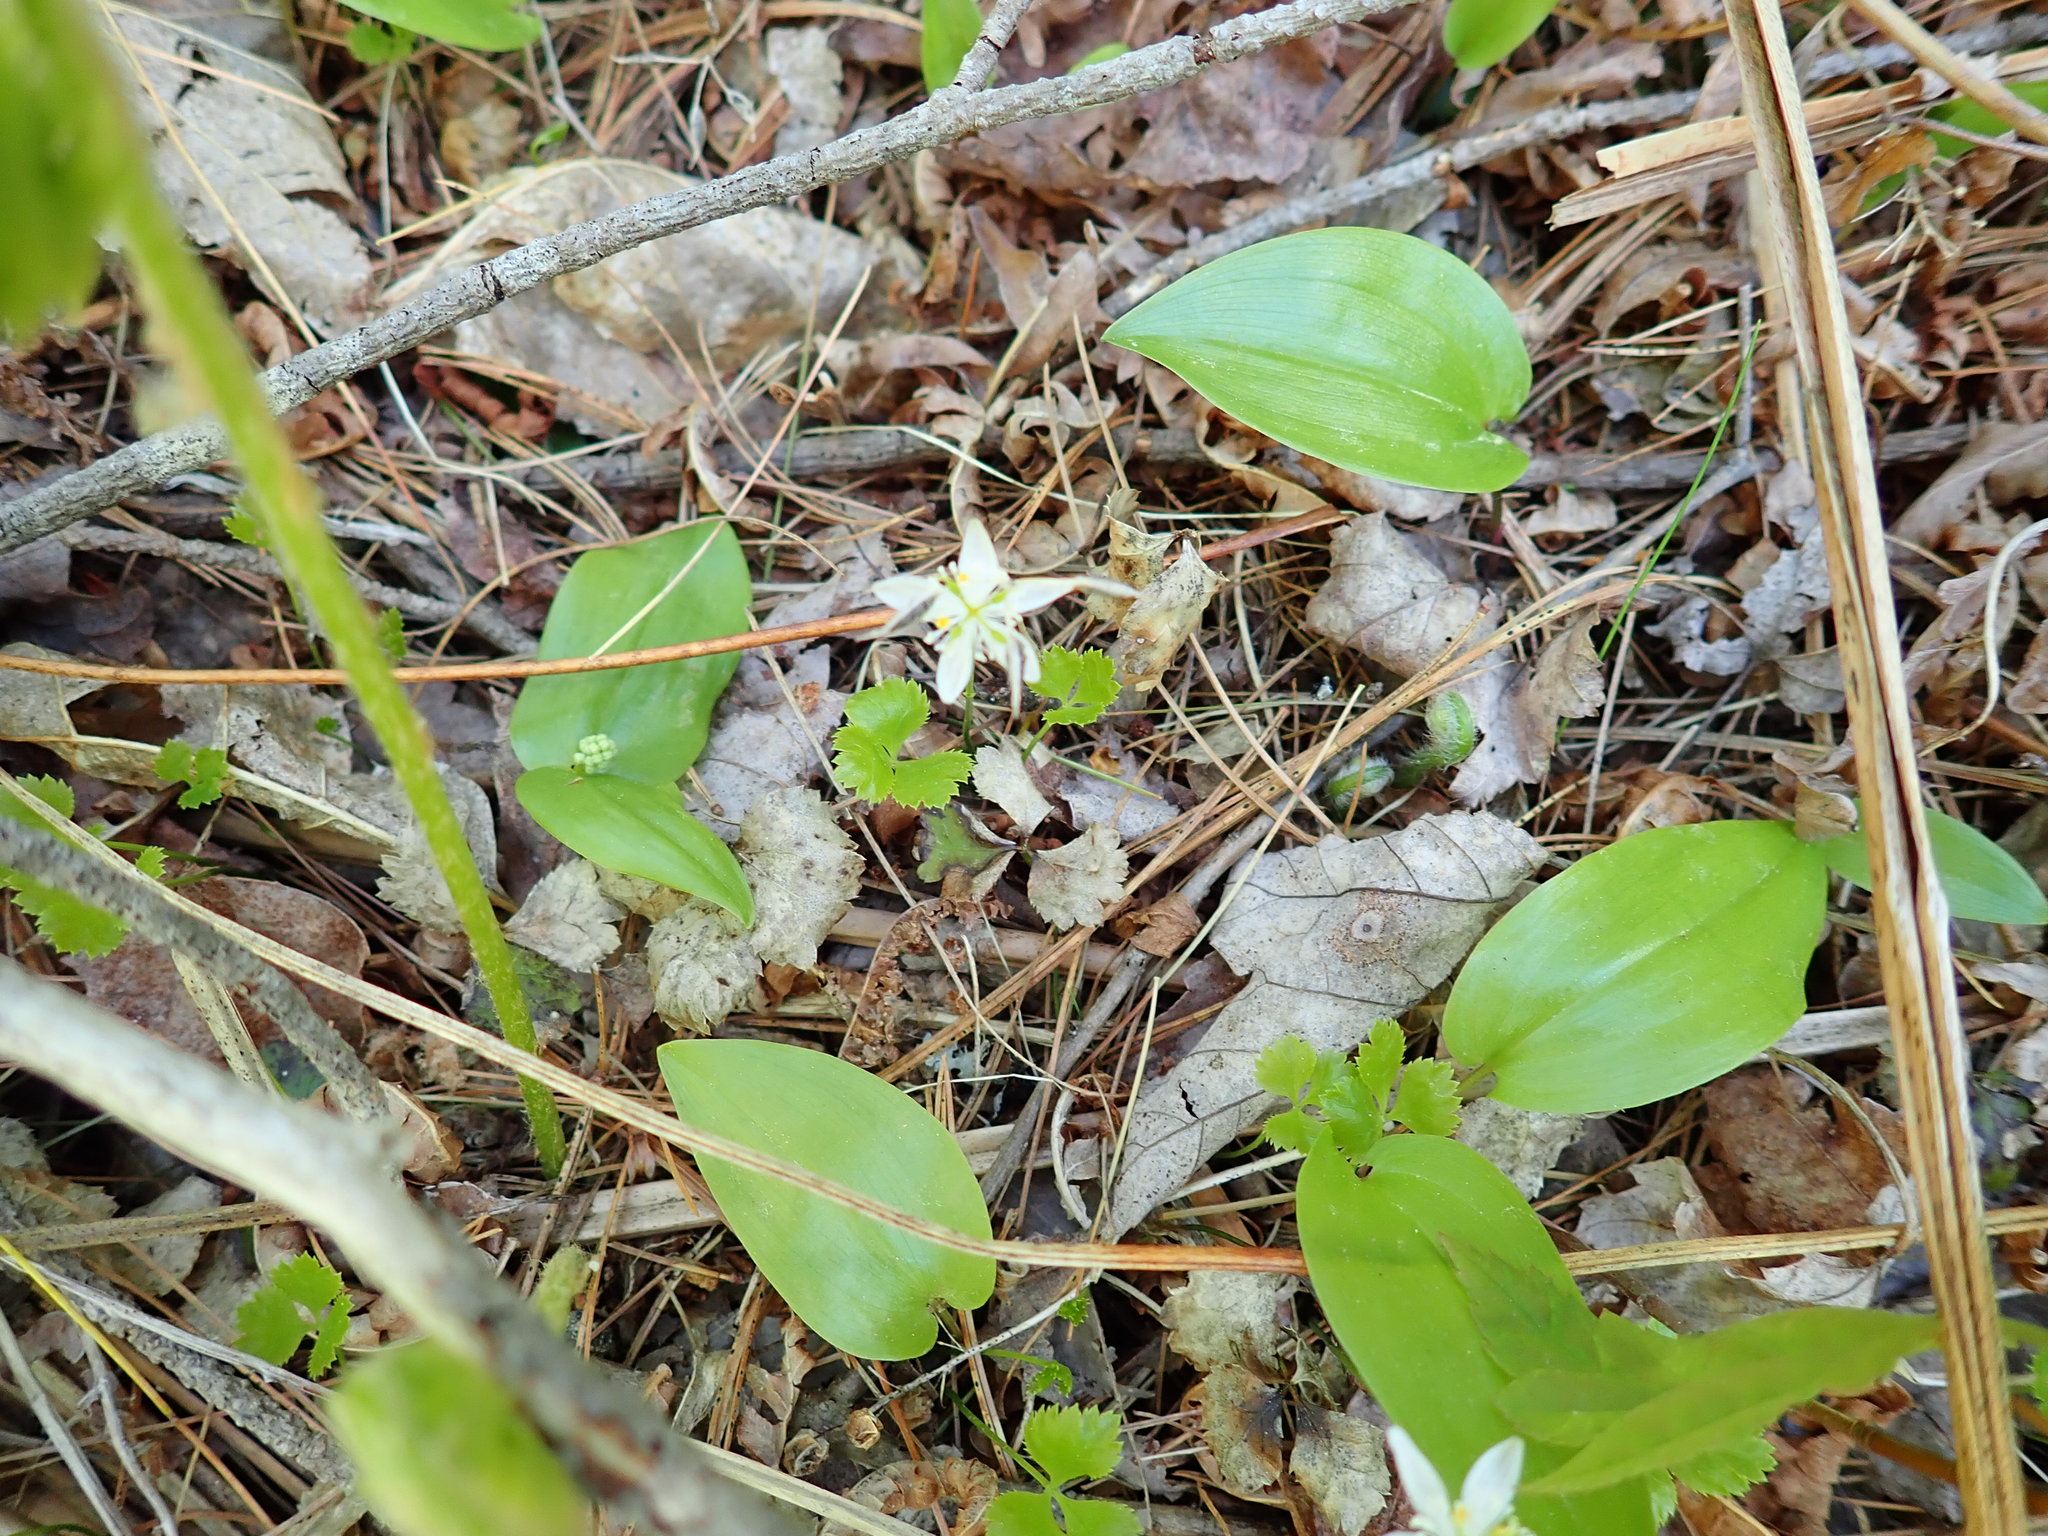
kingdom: Plantae
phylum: Tracheophyta
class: Magnoliopsida
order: Ranunculales
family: Ranunculaceae
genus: Coptis
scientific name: Coptis trifolia
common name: Canker-root
